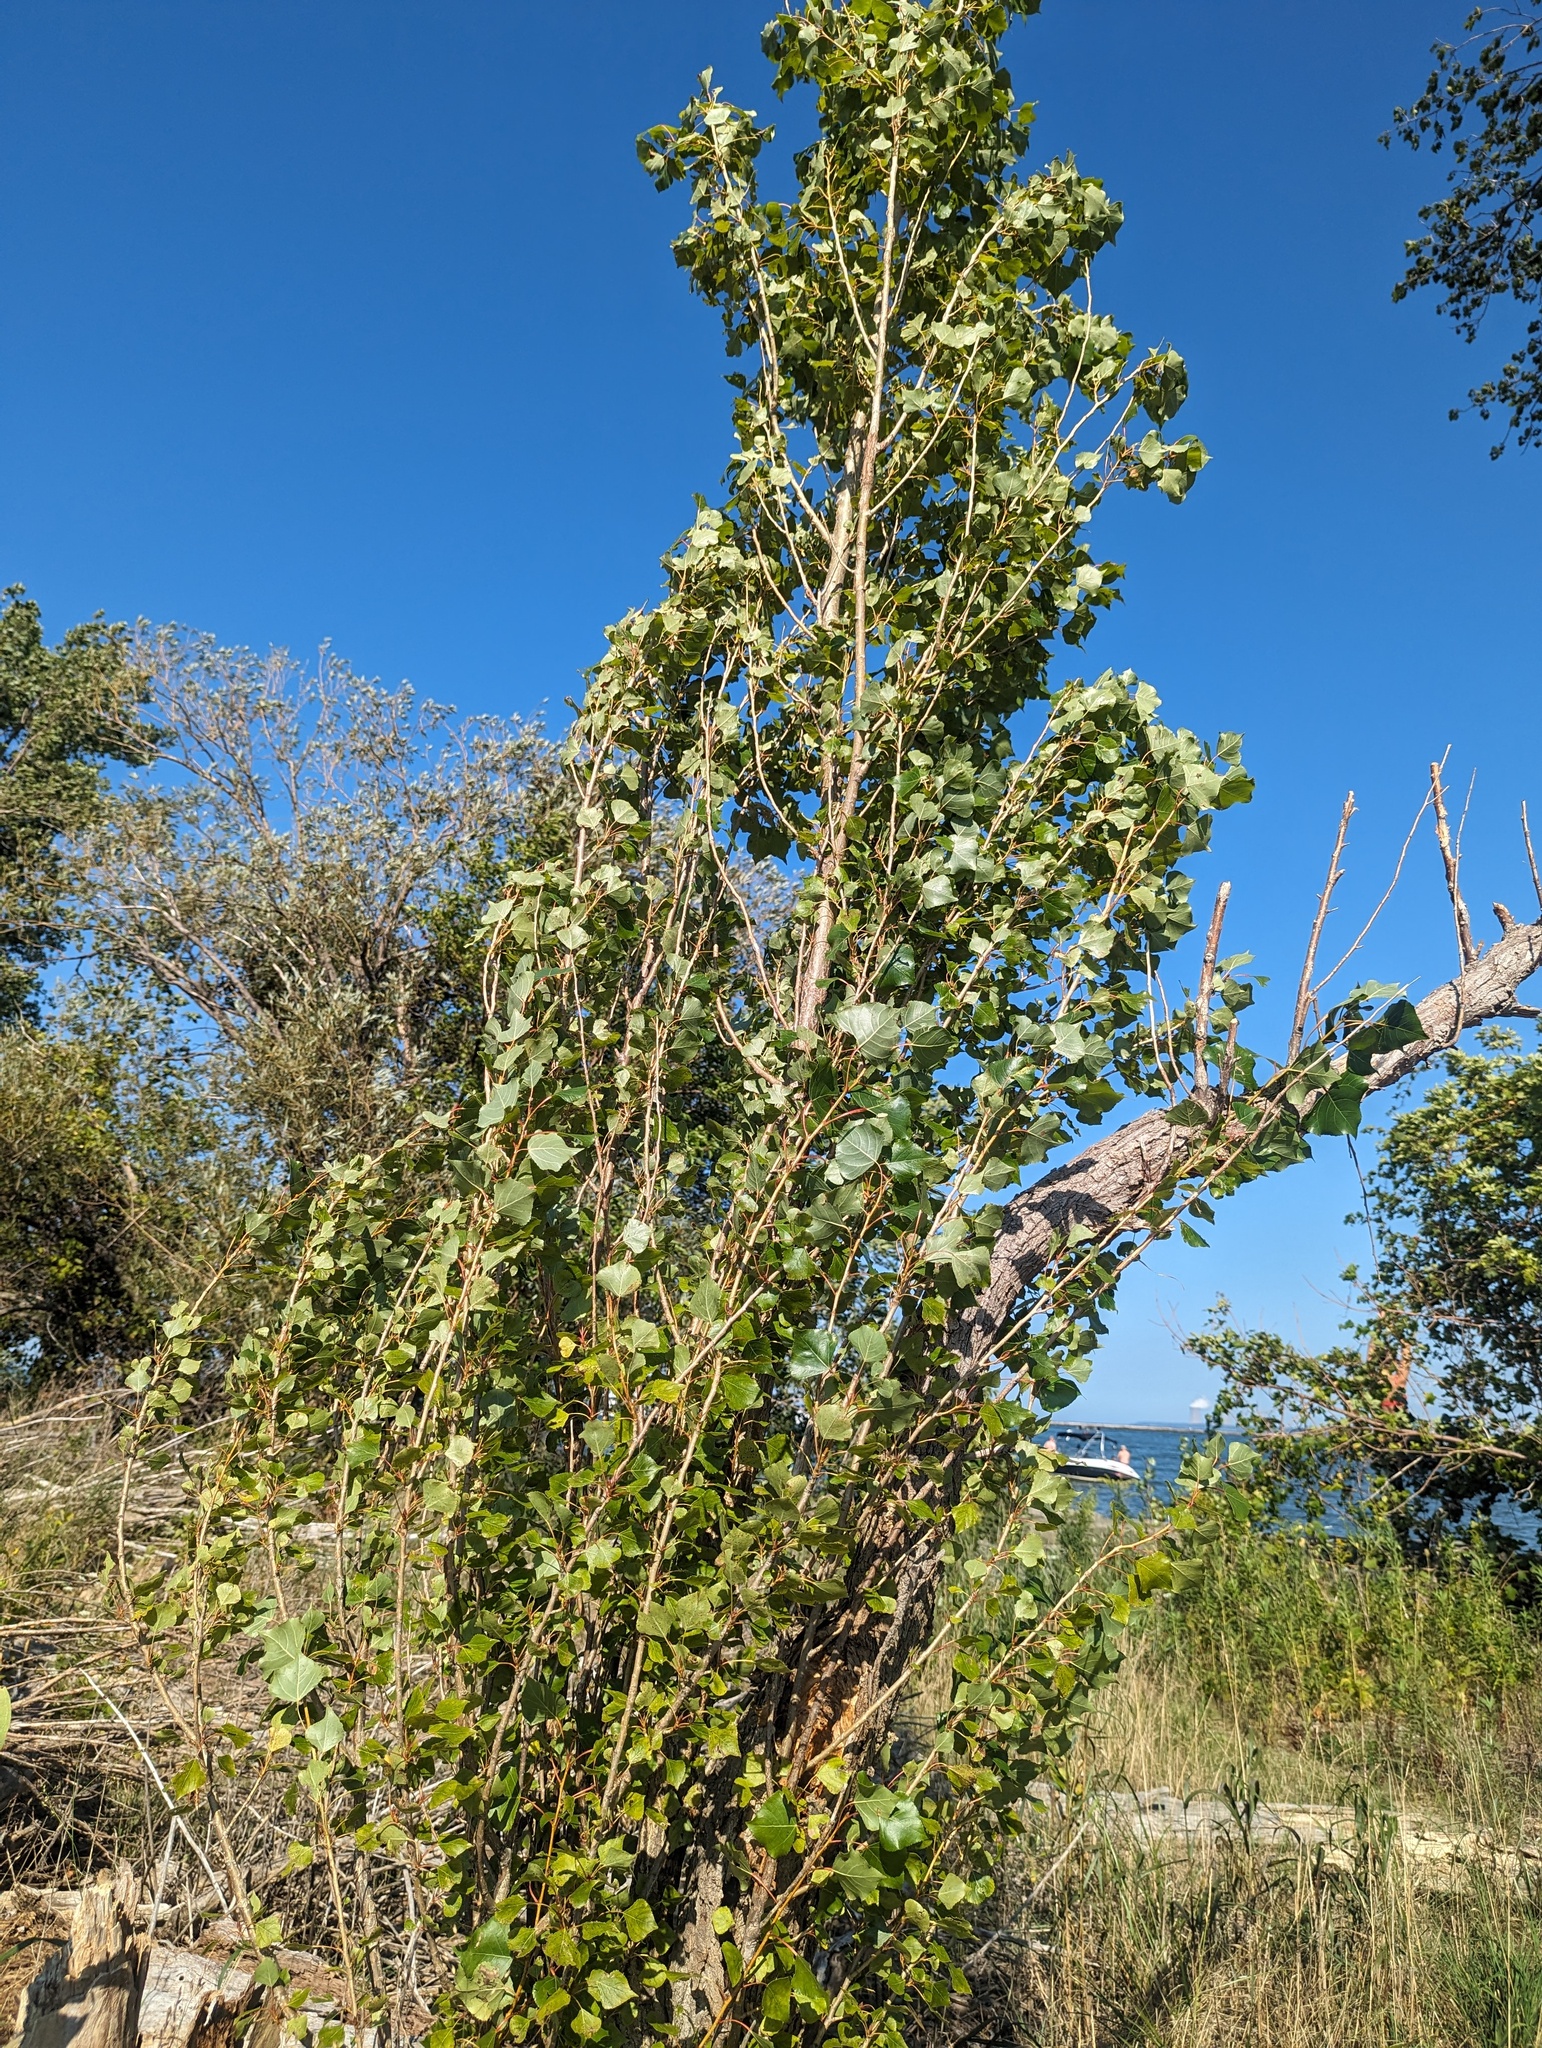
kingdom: Plantae
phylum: Tracheophyta
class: Magnoliopsida
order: Malpighiales
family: Salicaceae
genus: Populus
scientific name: Populus nigra
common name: Black poplar
